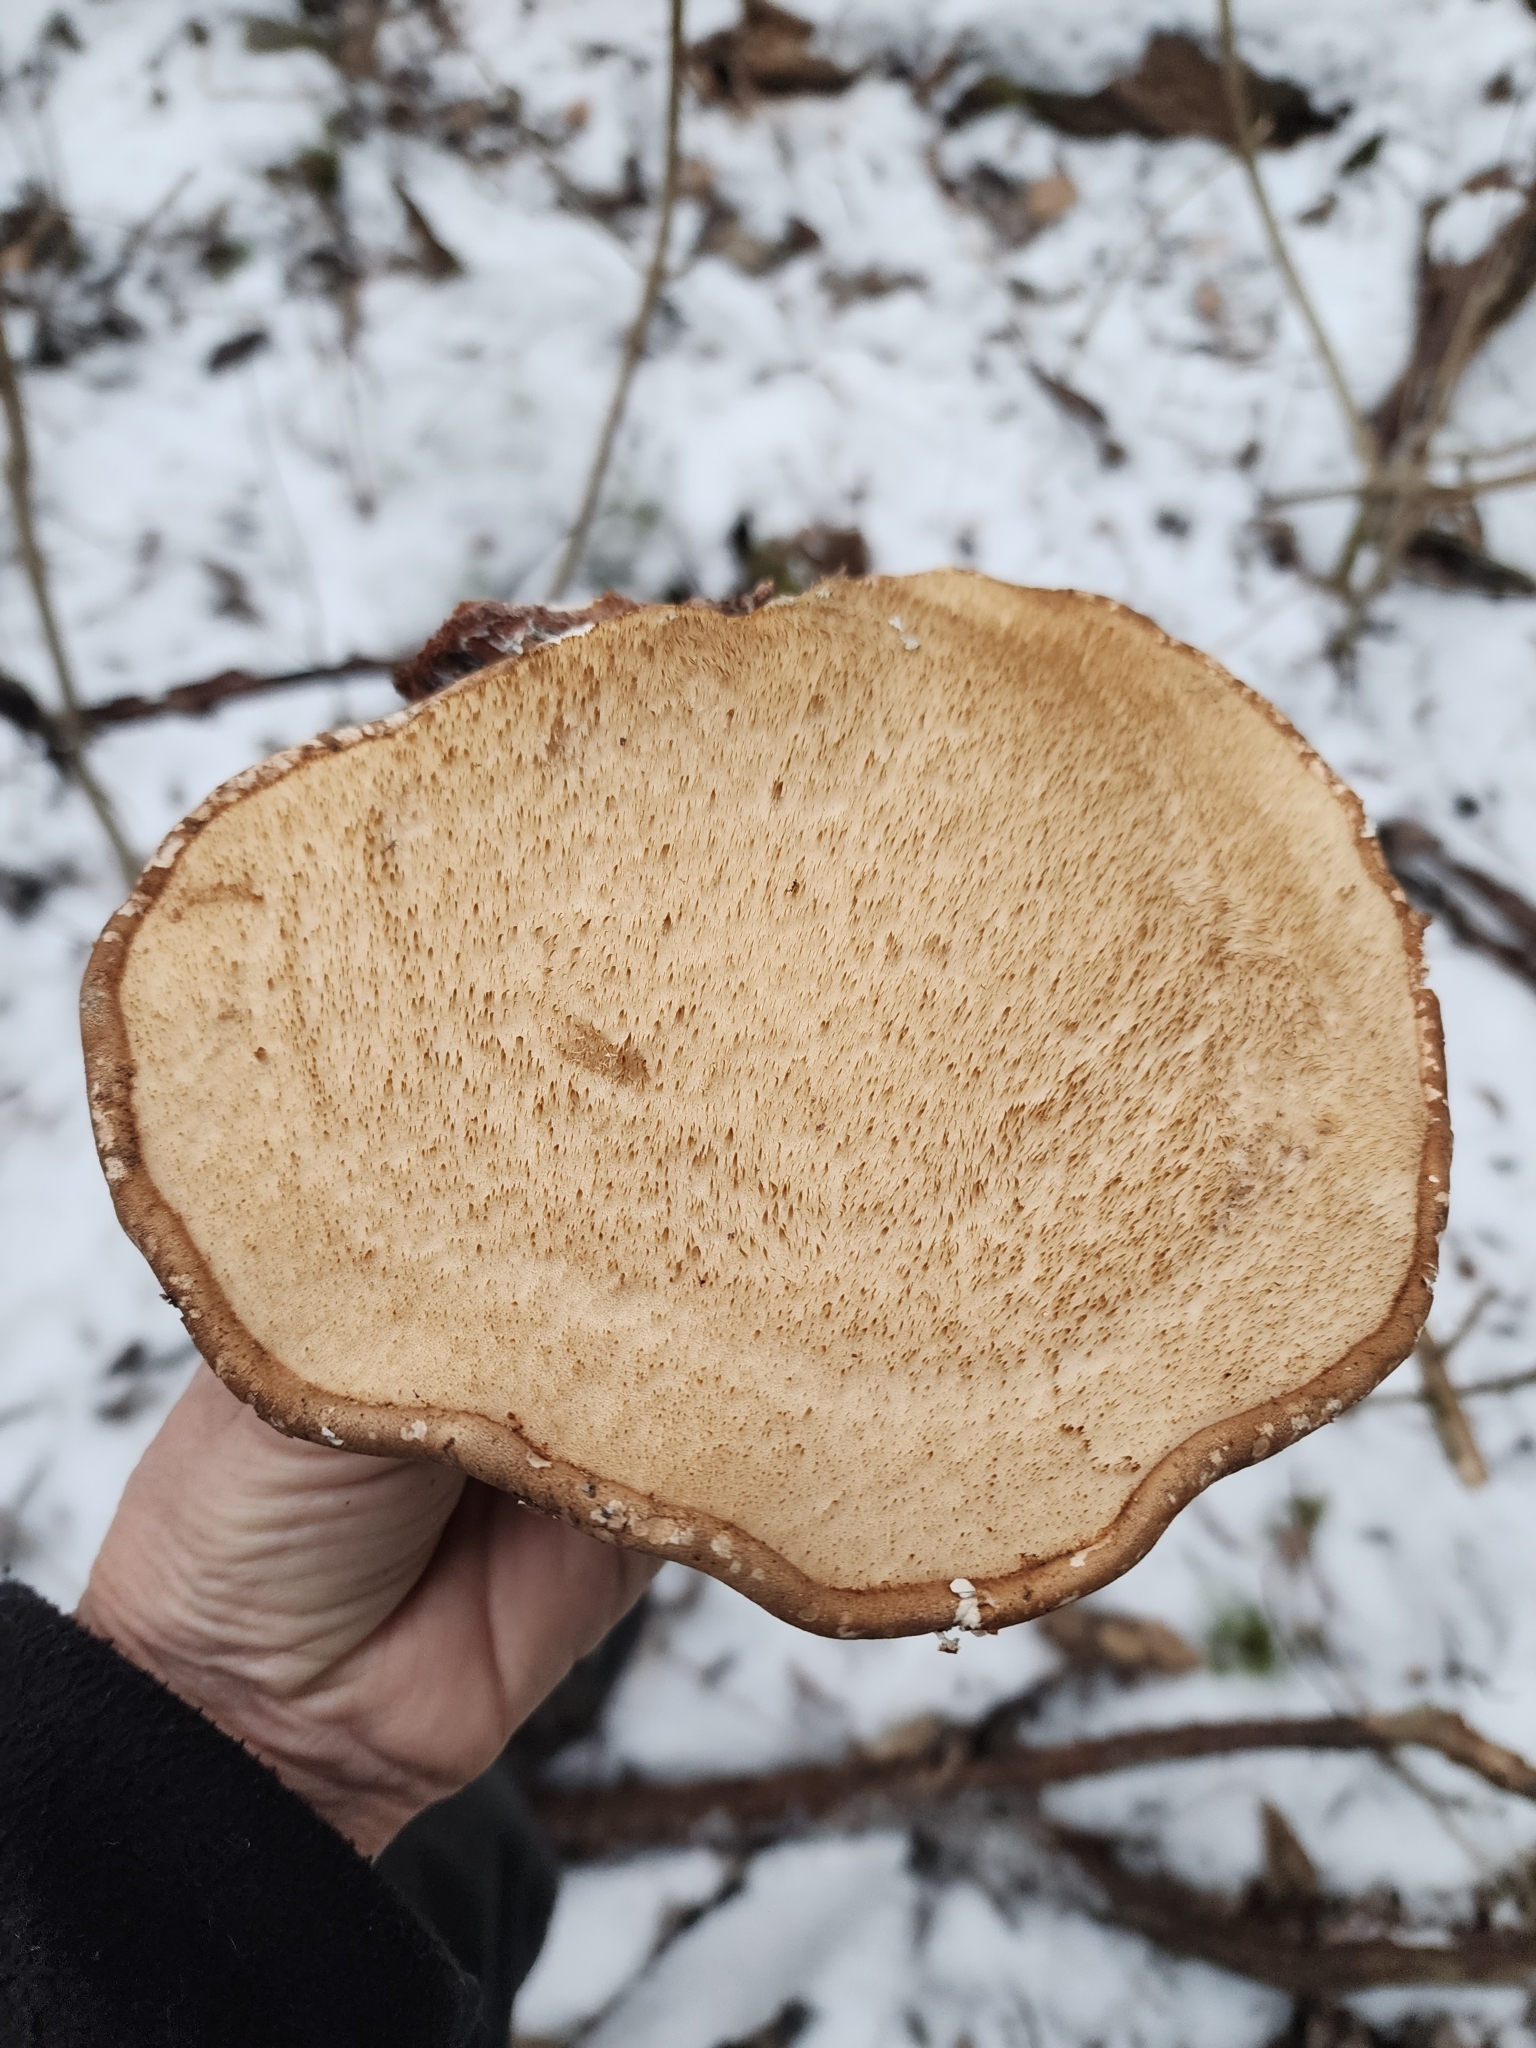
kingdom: Fungi
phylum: Basidiomycota
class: Agaricomycetes
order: Polyporales
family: Fomitopsidaceae
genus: Fomitopsis
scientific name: Fomitopsis betulina
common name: Birch polypore
